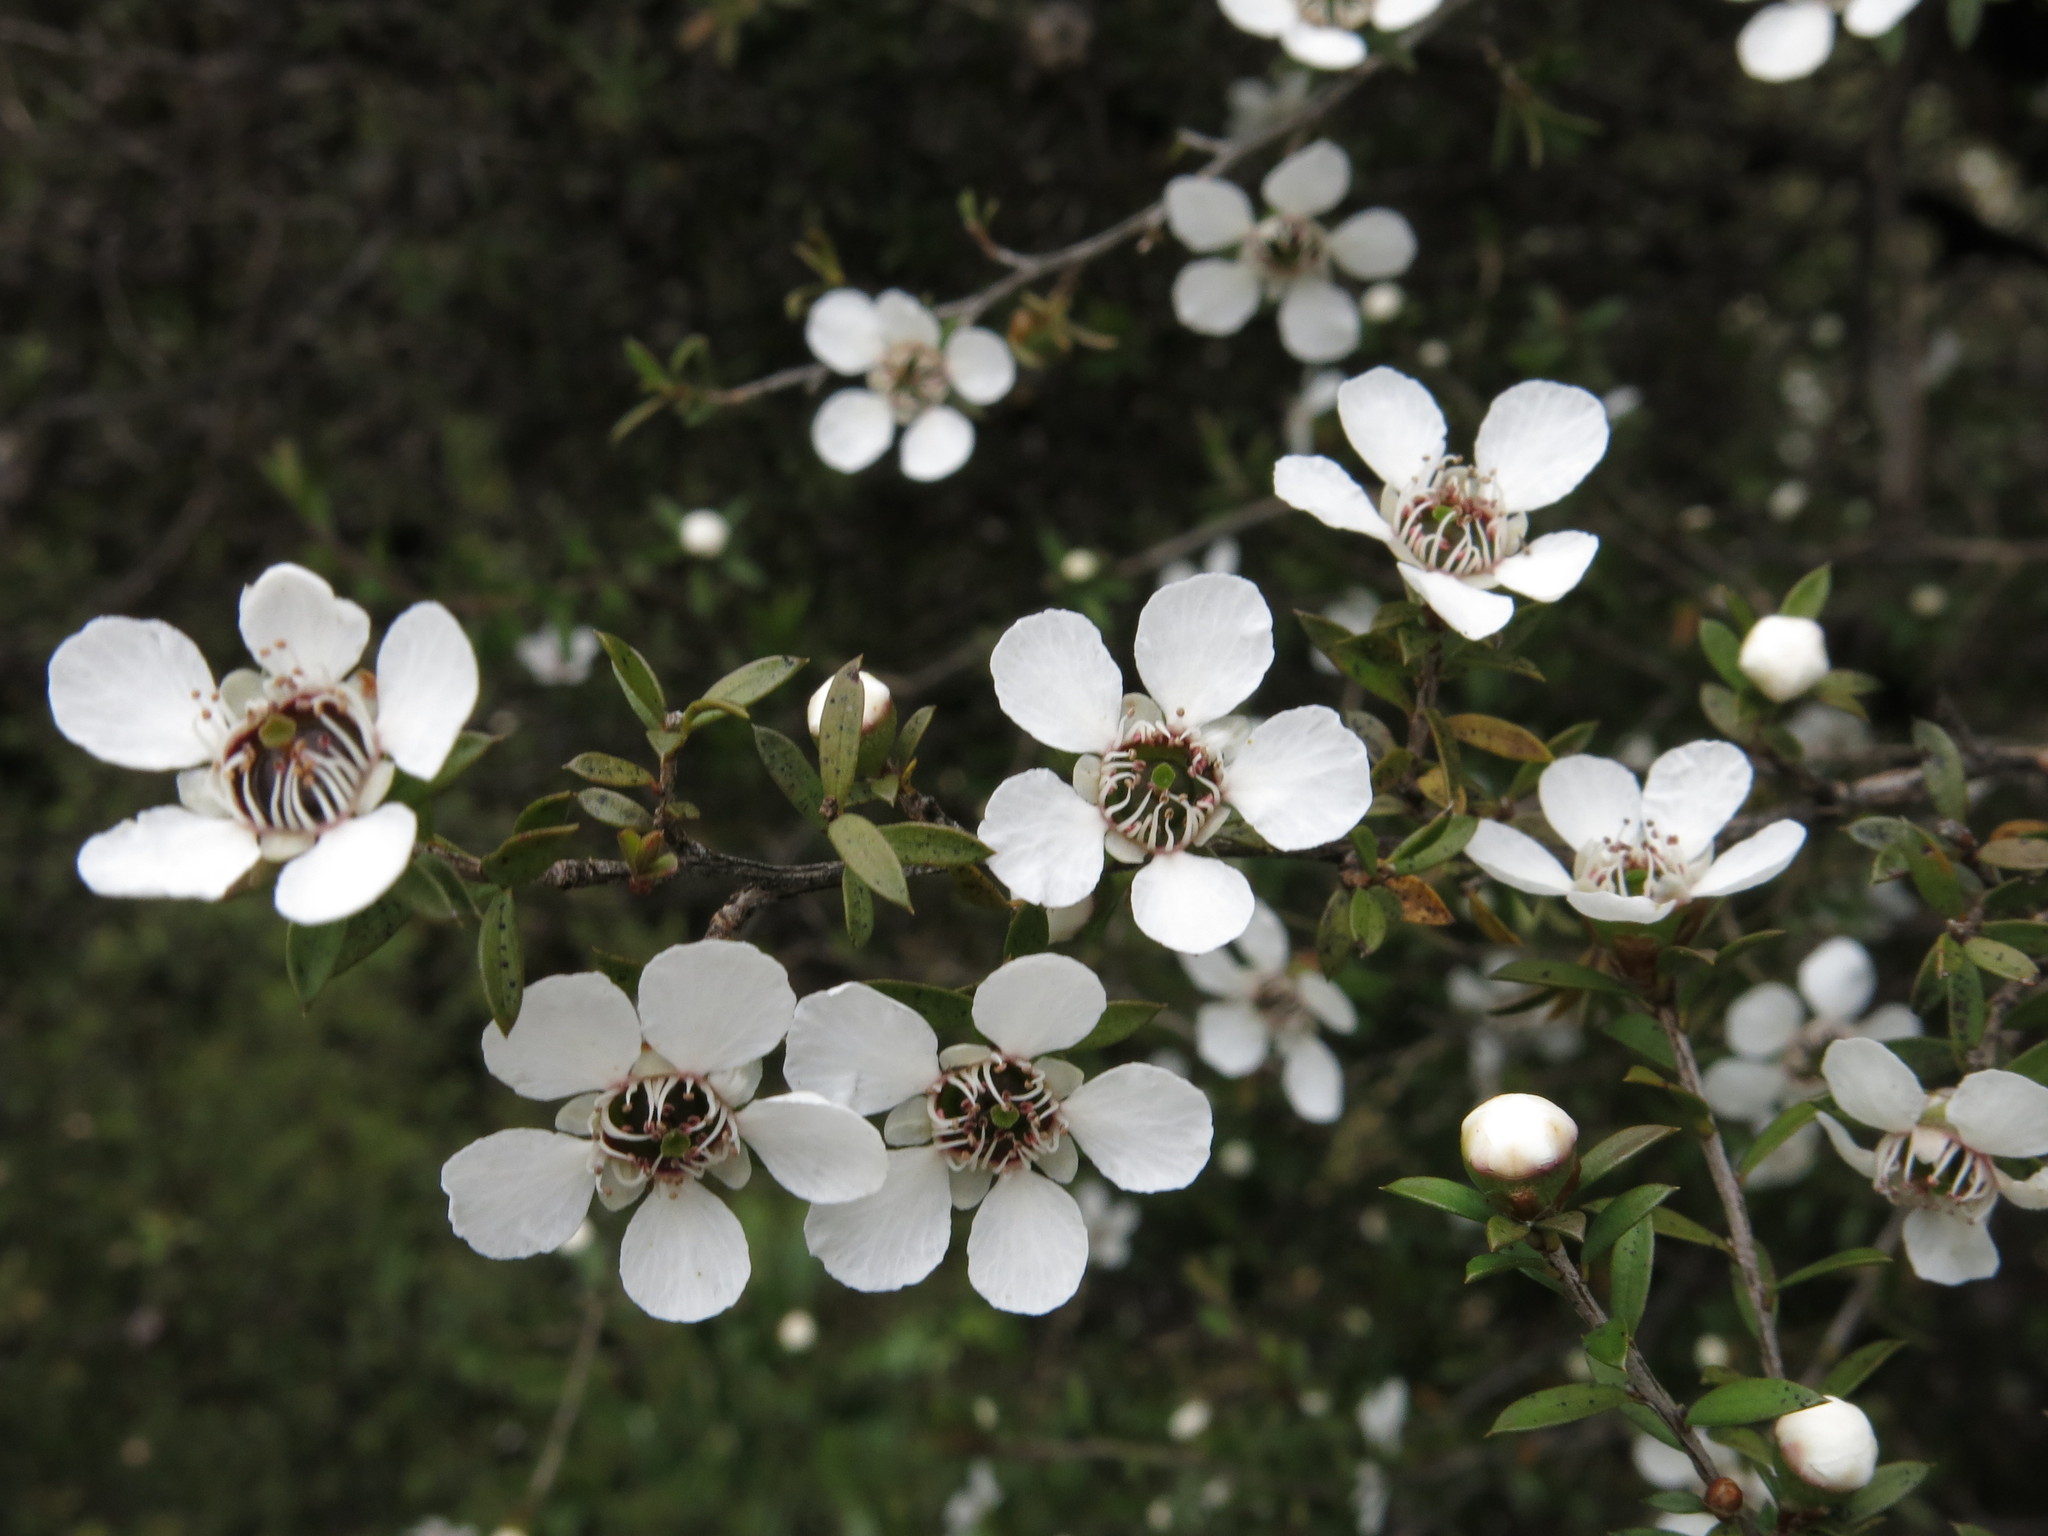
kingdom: Plantae
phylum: Tracheophyta
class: Magnoliopsida
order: Myrtales
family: Myrtaceae
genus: Leptospermum
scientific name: Leptospermum scoparium
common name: Broom tea-tree
